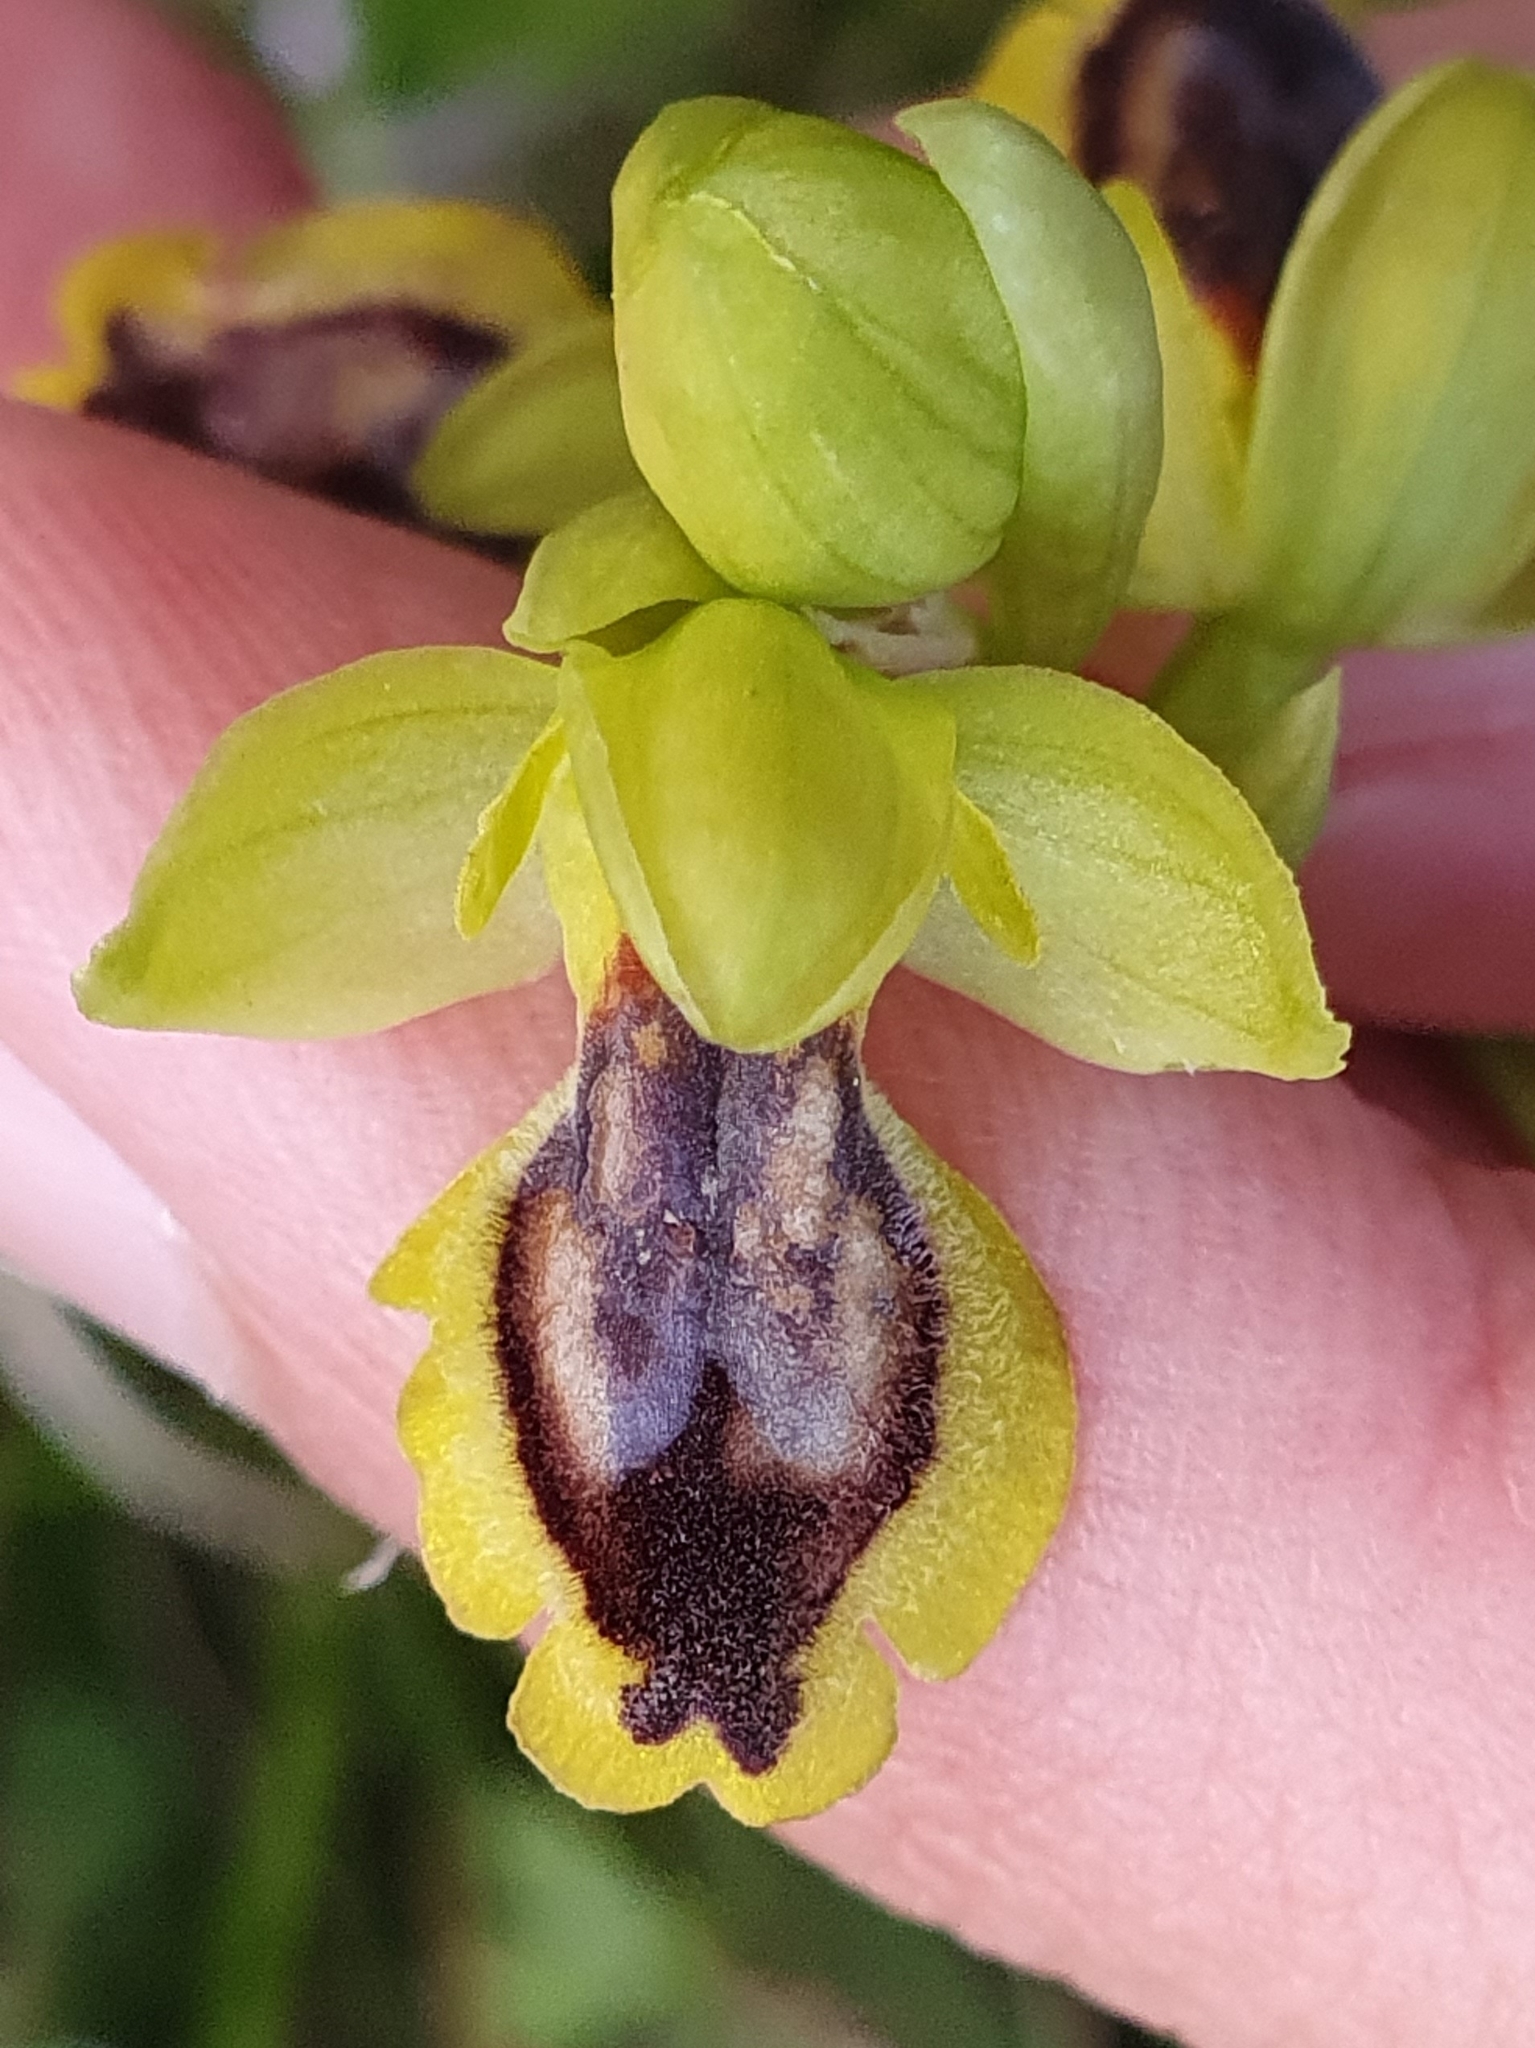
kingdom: Plantae
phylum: Tracheophyta
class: Liliopsida
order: Asparagales
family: Orchidaceae
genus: Ophrys
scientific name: Ophrys battandieri
